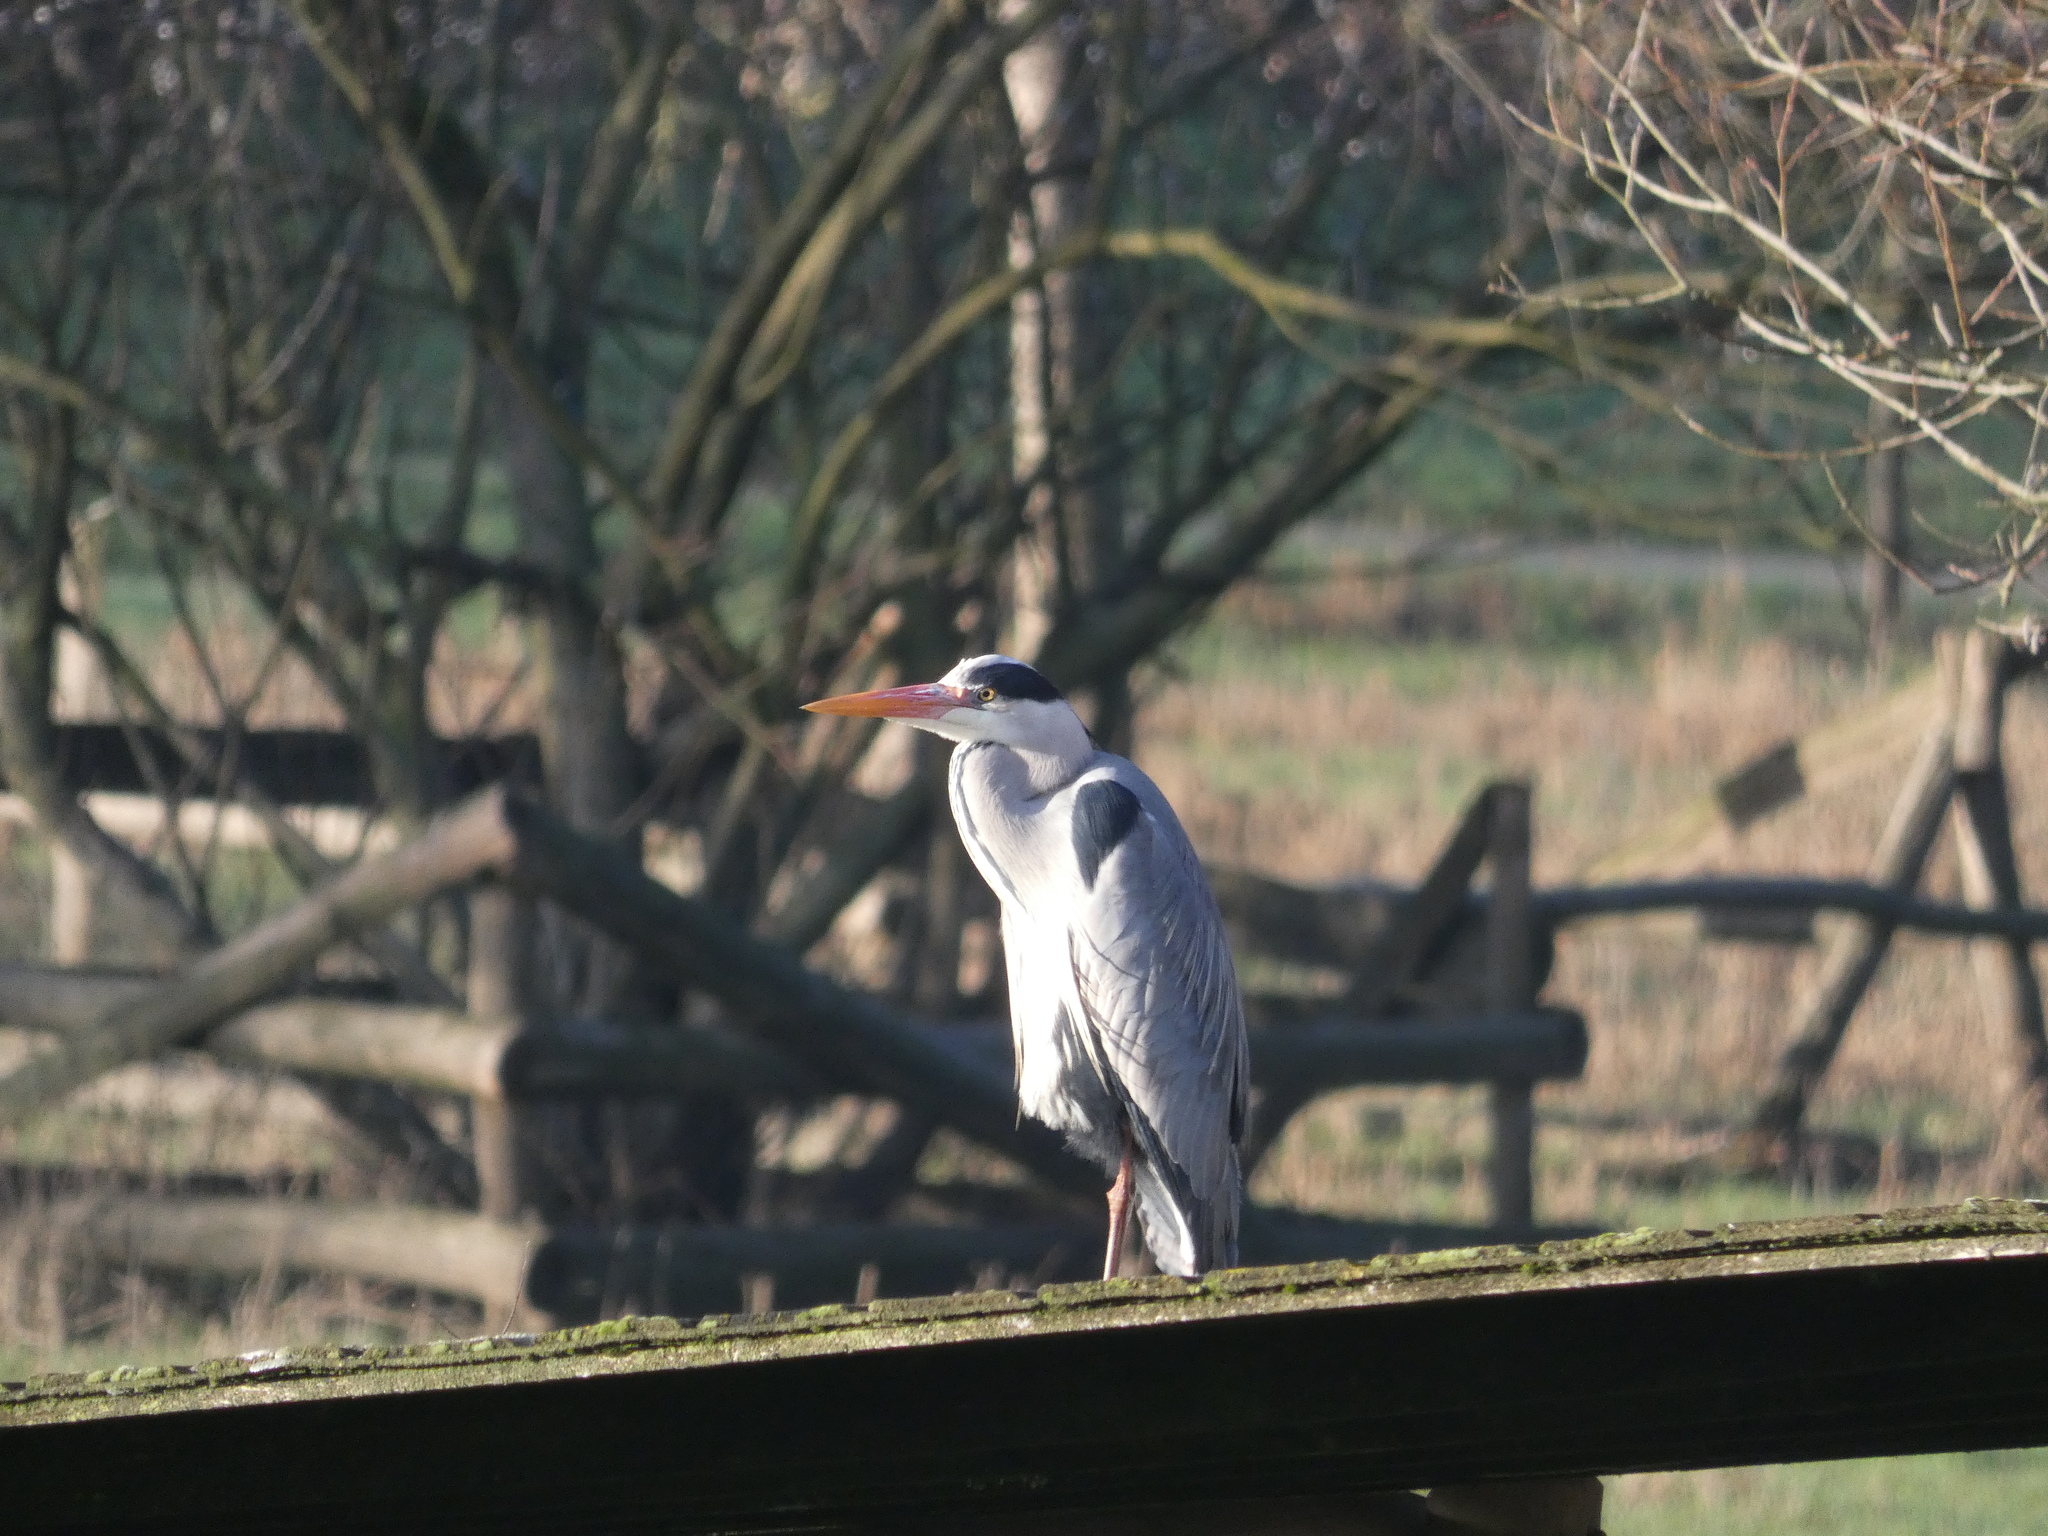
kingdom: Animalia
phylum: Chordata
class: Aves
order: Pelecaniformes
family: Ardeidae
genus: Ardea
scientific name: Ardea cinerea
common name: Grey heron
